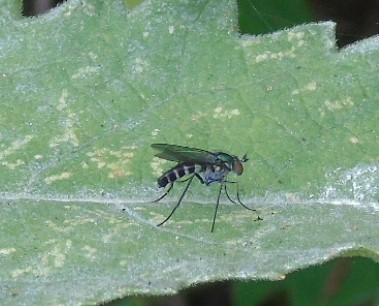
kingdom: Animalia
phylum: Arthropoda
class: Insecta
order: Diptera
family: Dolichopodidae
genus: Plagioneurus
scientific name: Plagioneurus univittatus
